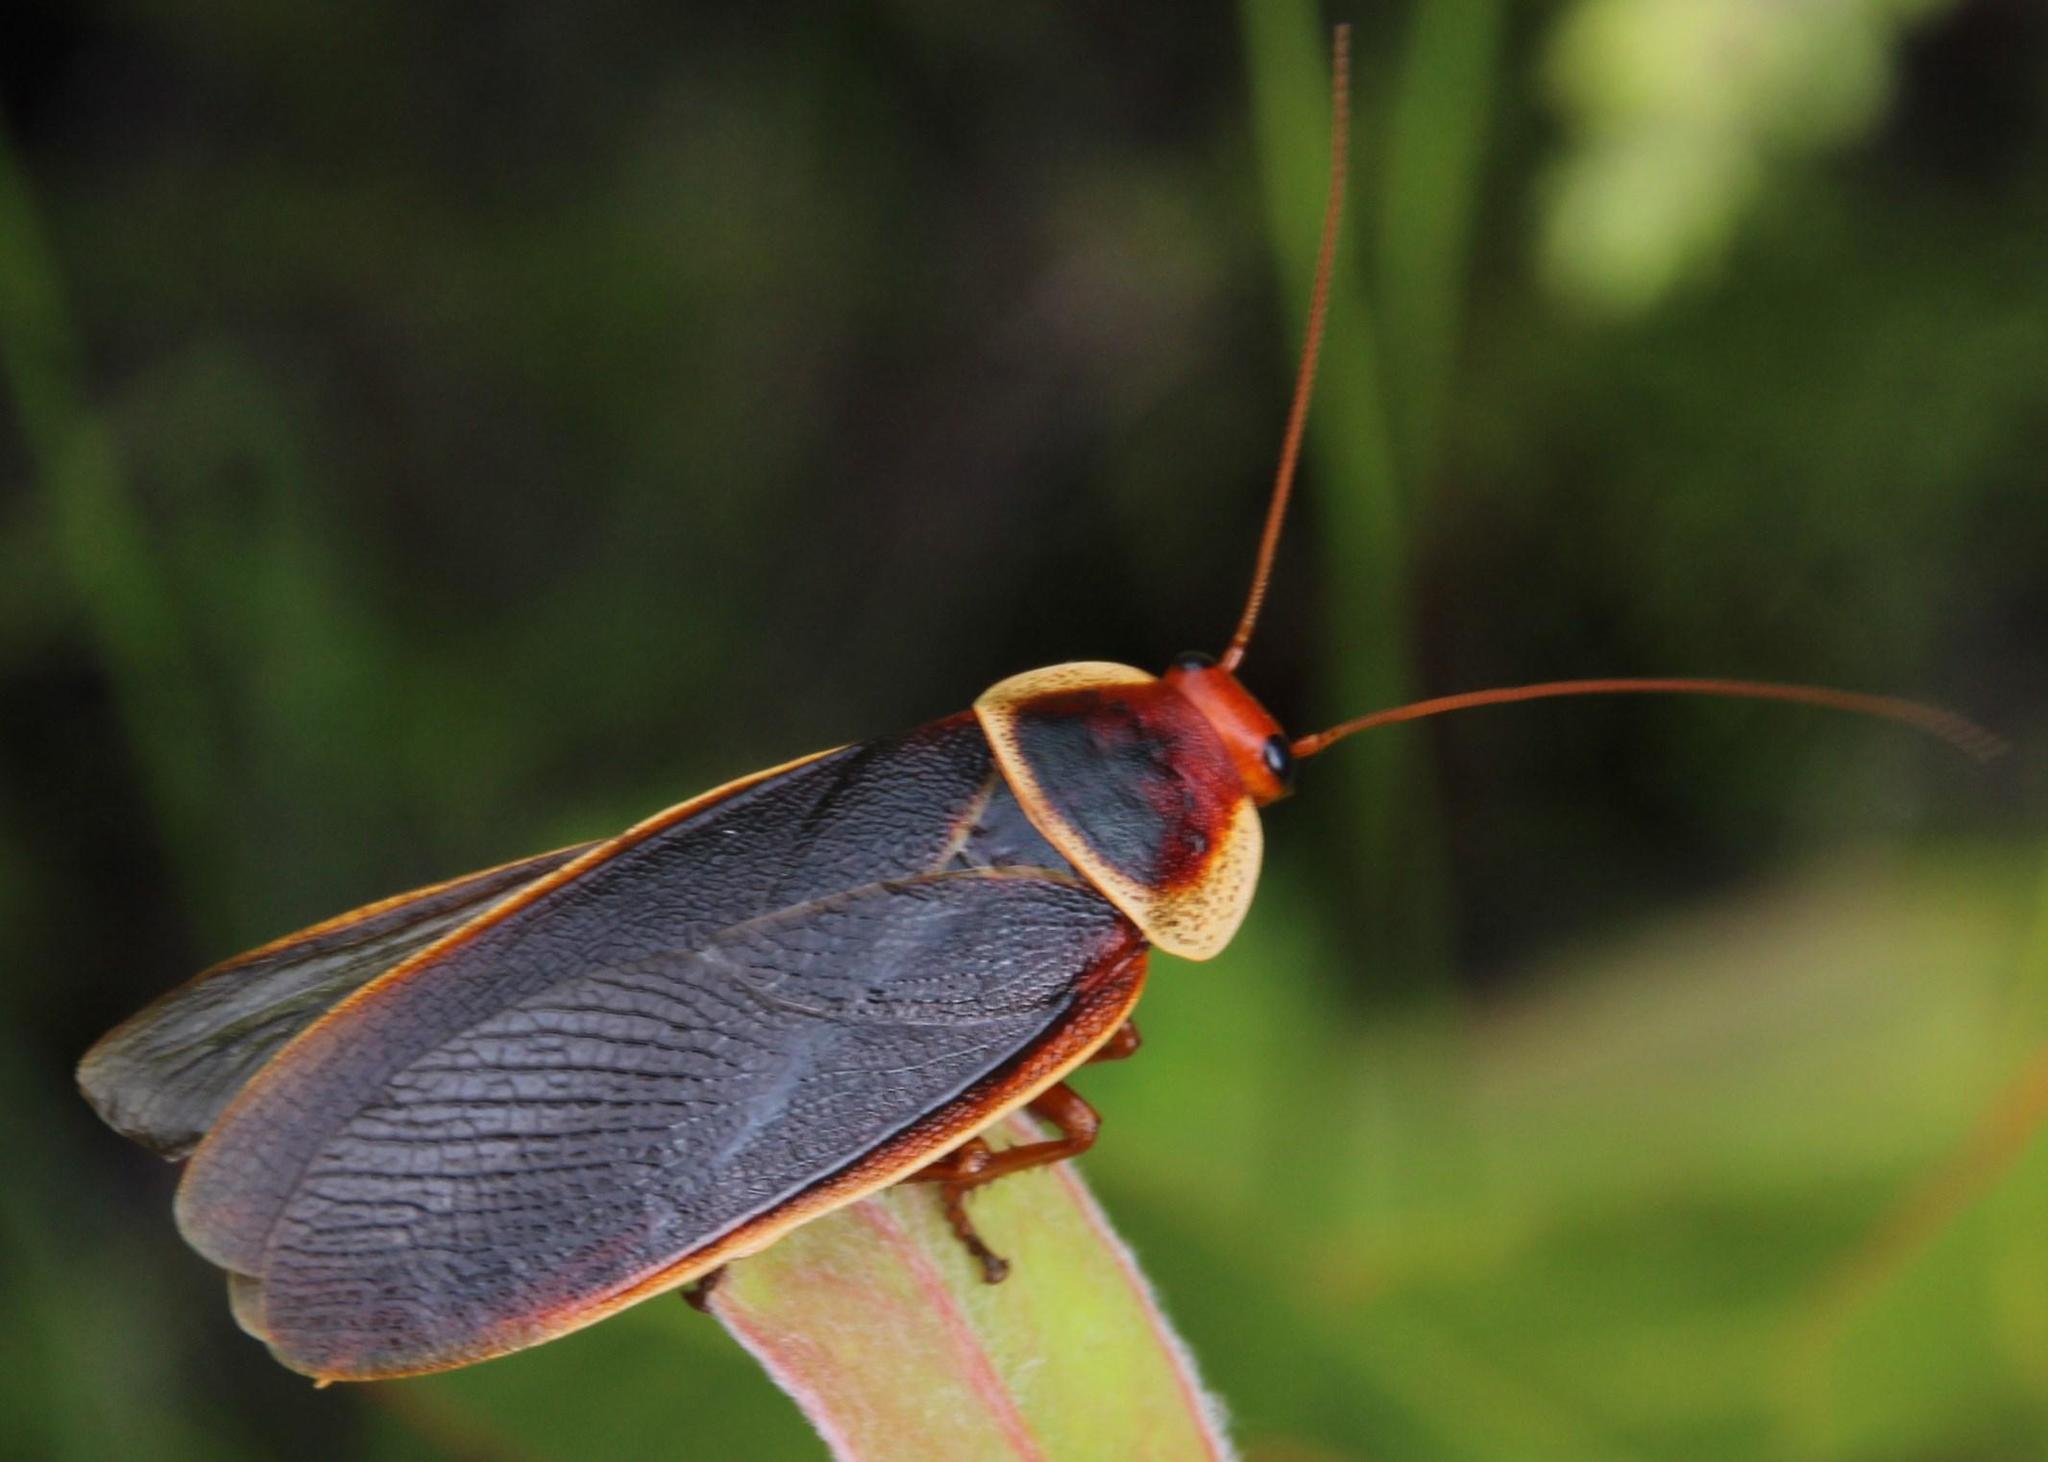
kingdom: Animalia
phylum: Arthropoda
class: Insecta
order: Blattodea
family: Blaberidae
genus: Aptera
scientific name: Aptera fusca
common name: Cape mountain cockroach
